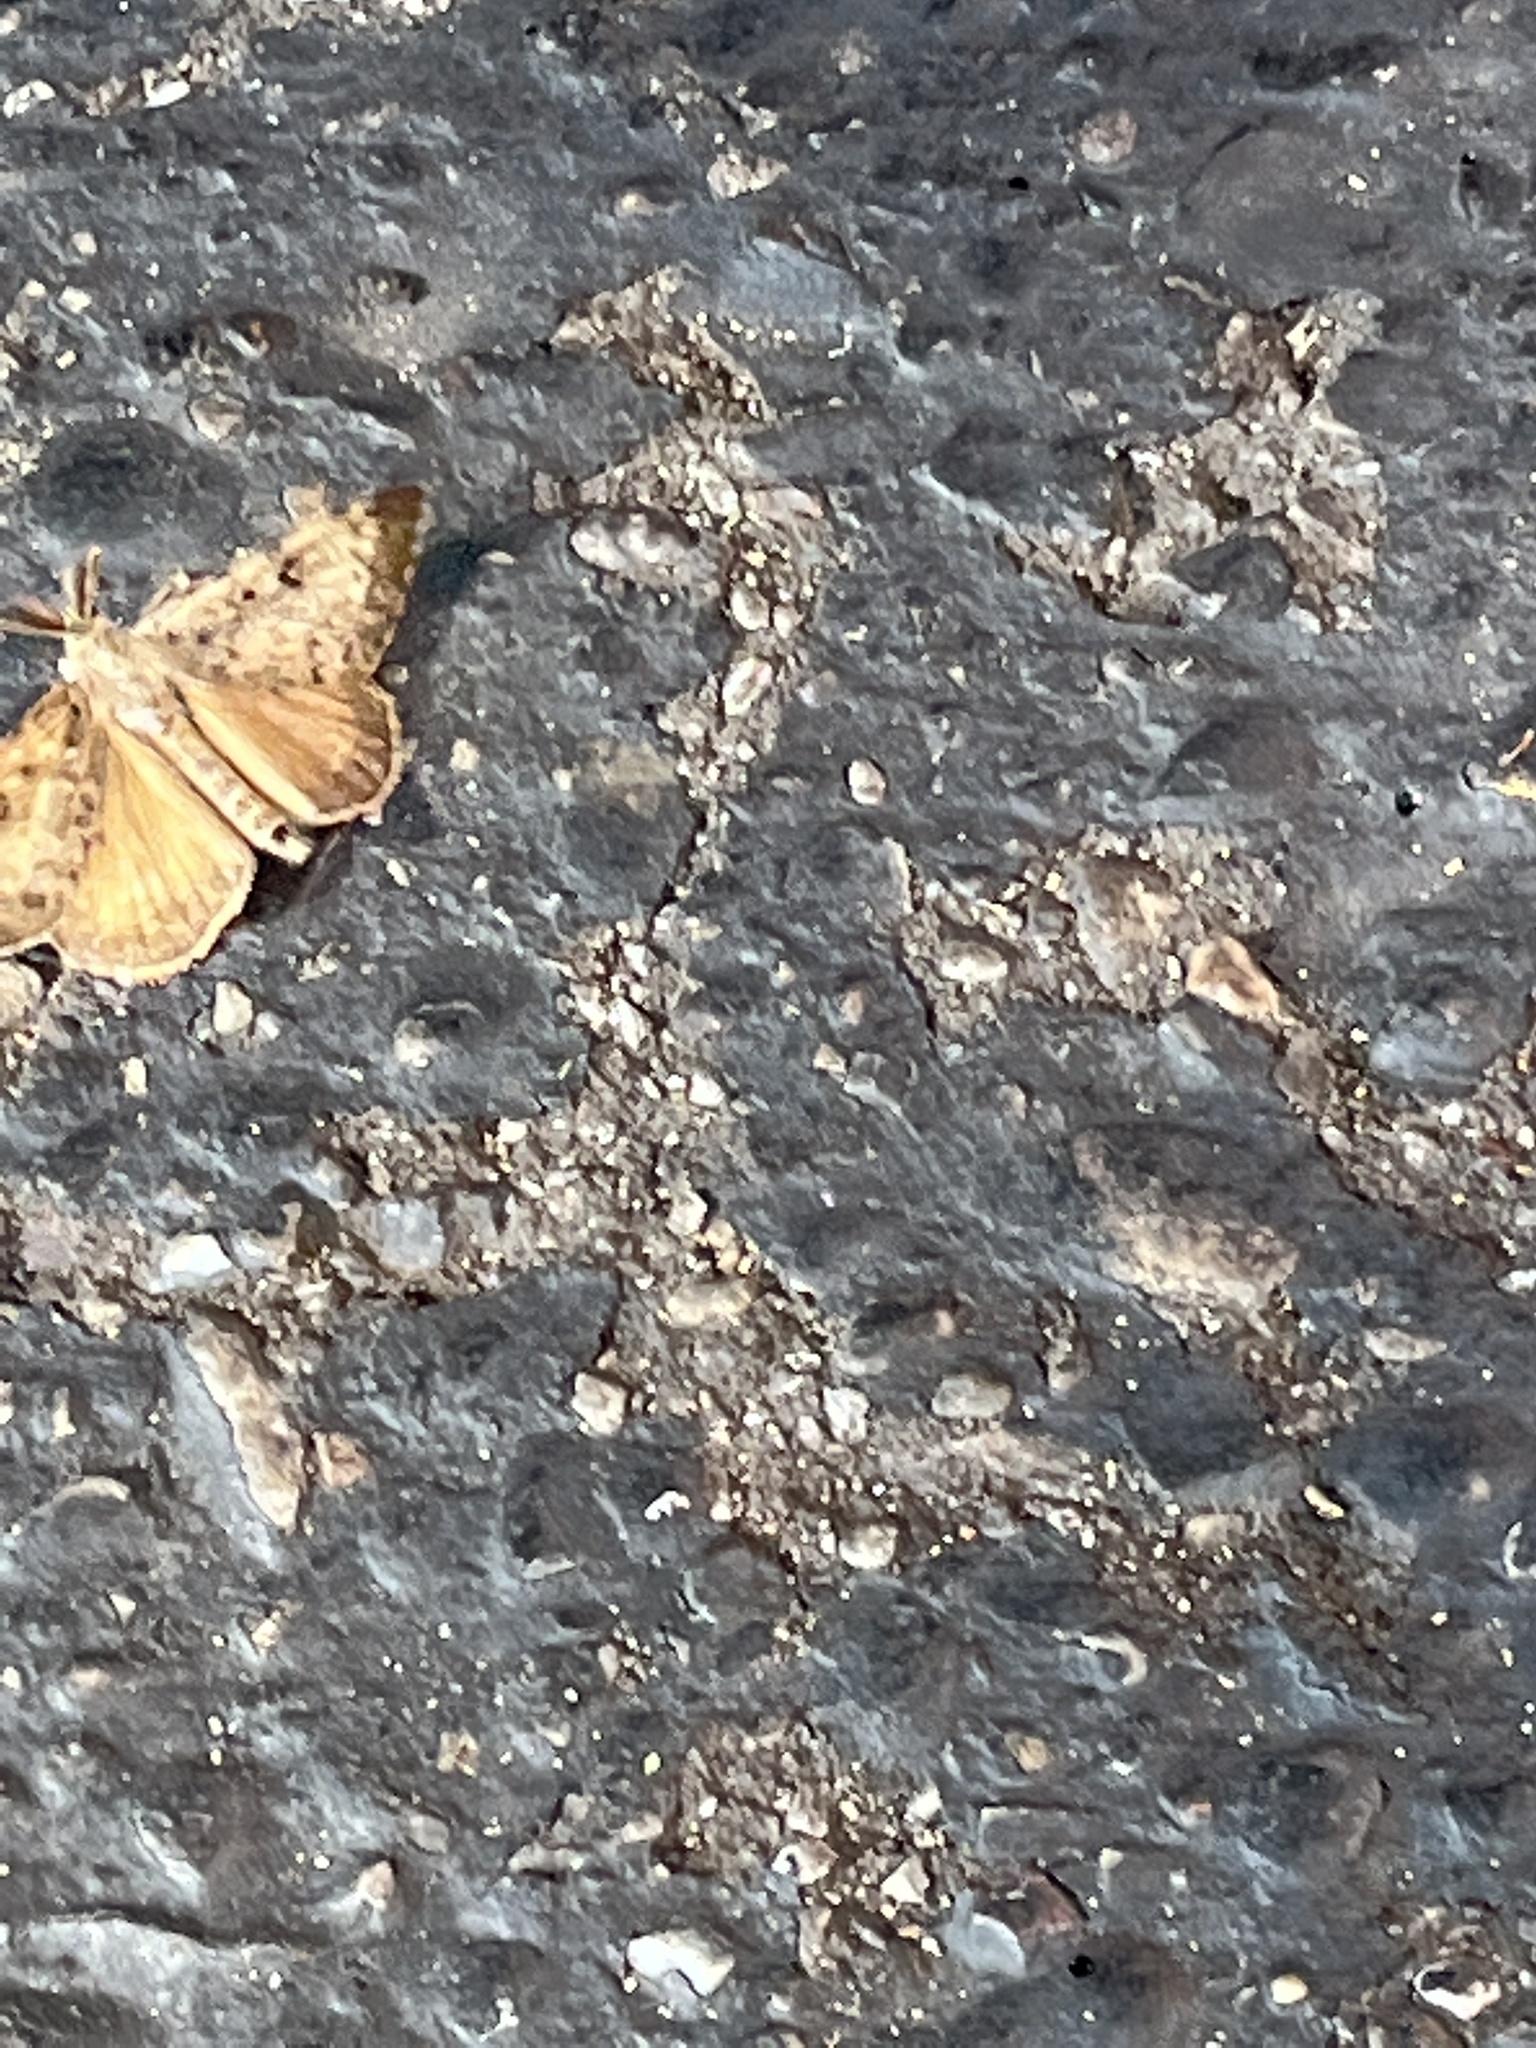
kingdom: Animalia
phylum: Arthropoda
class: Insecta
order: Lepidoptera
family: Erebidae
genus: Lymantria
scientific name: Lymantria dispar
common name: Gypsy moth
